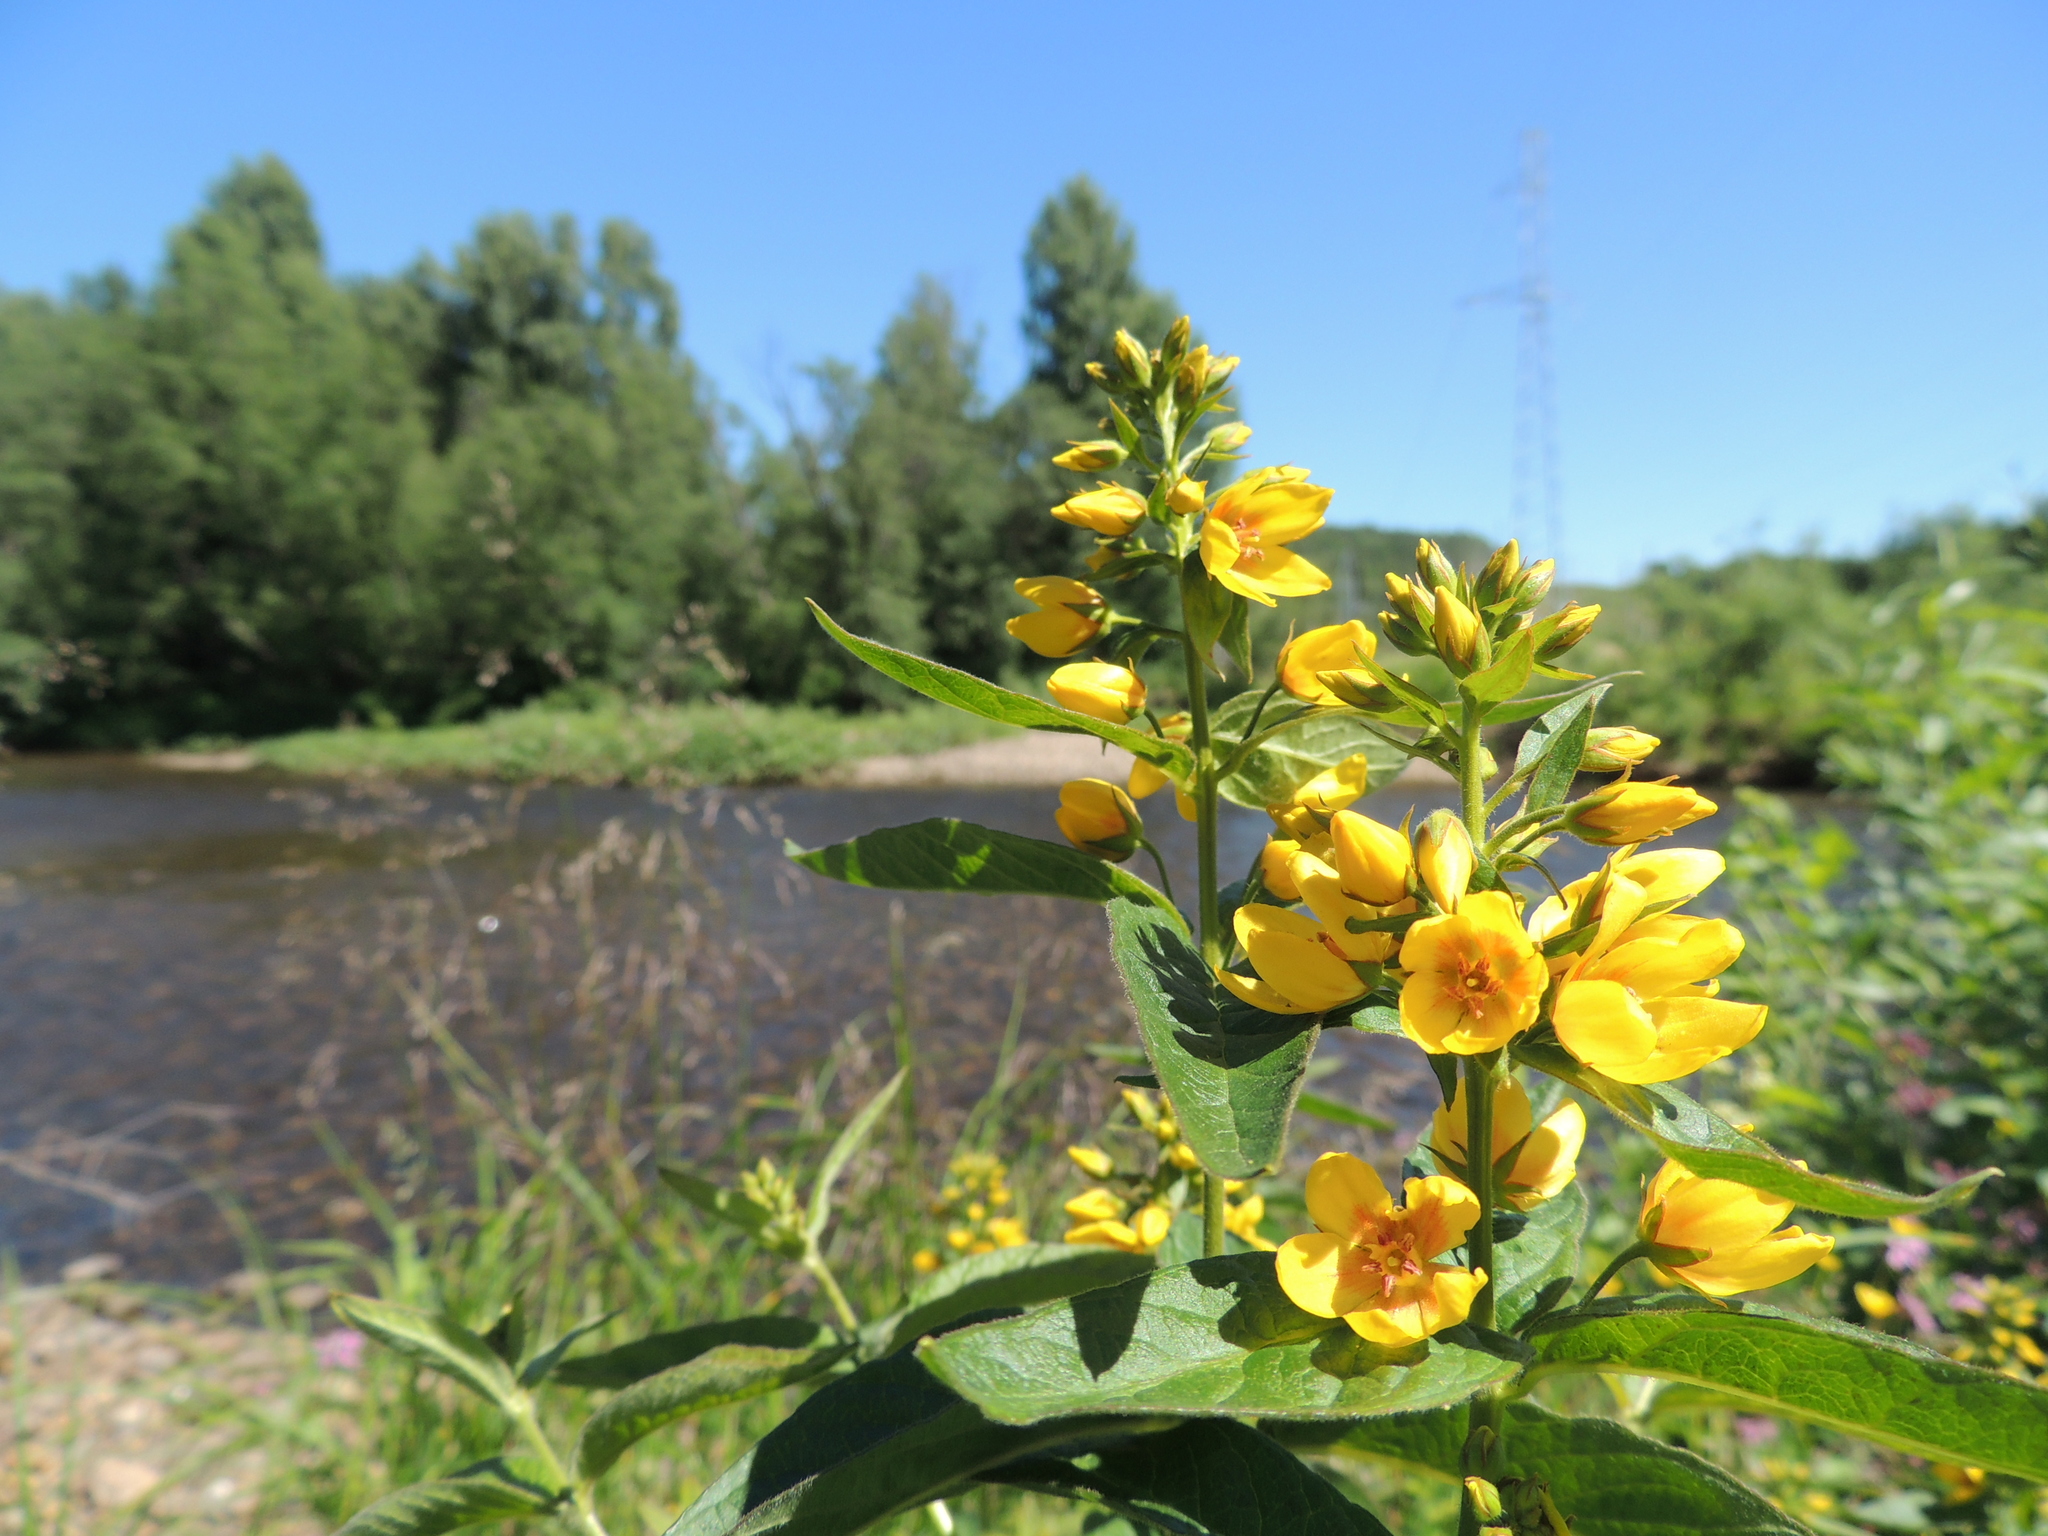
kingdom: Plantae
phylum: Tracheophyta
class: Magnoliopsida
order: Ericales
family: Primulaceae
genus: Lysimachia
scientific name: Lysimachia vulgaris
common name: Yellow loosestrife
